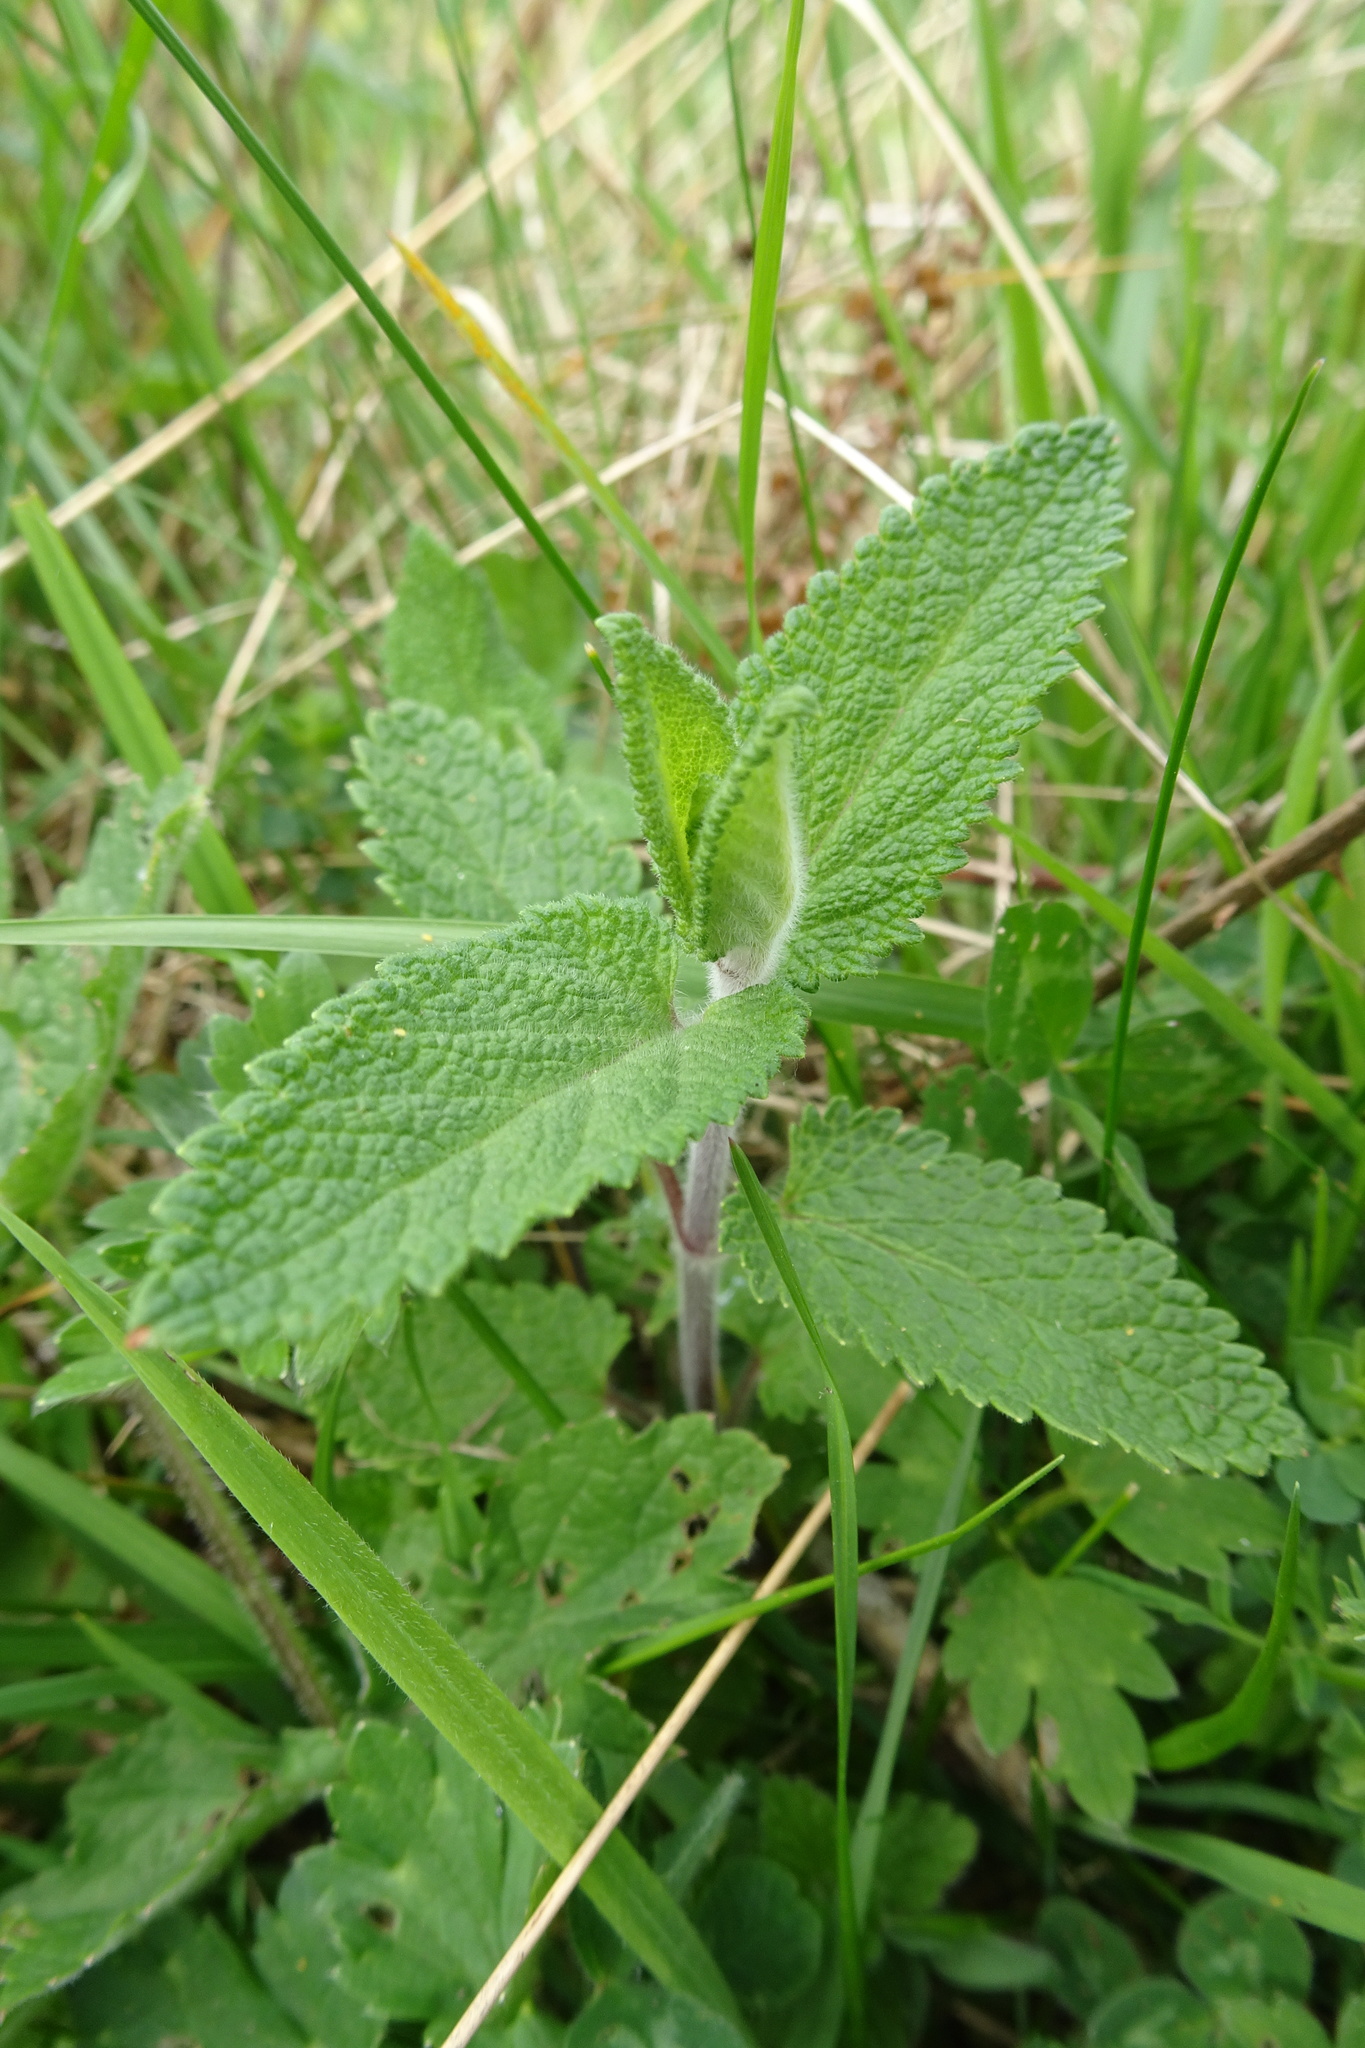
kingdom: Plantae
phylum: Tracheophyta
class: Magnoliopsida
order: Lamiales
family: Lamiaceae
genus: Teucrium
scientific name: Teucrium scorodonia
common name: Woodland germander
